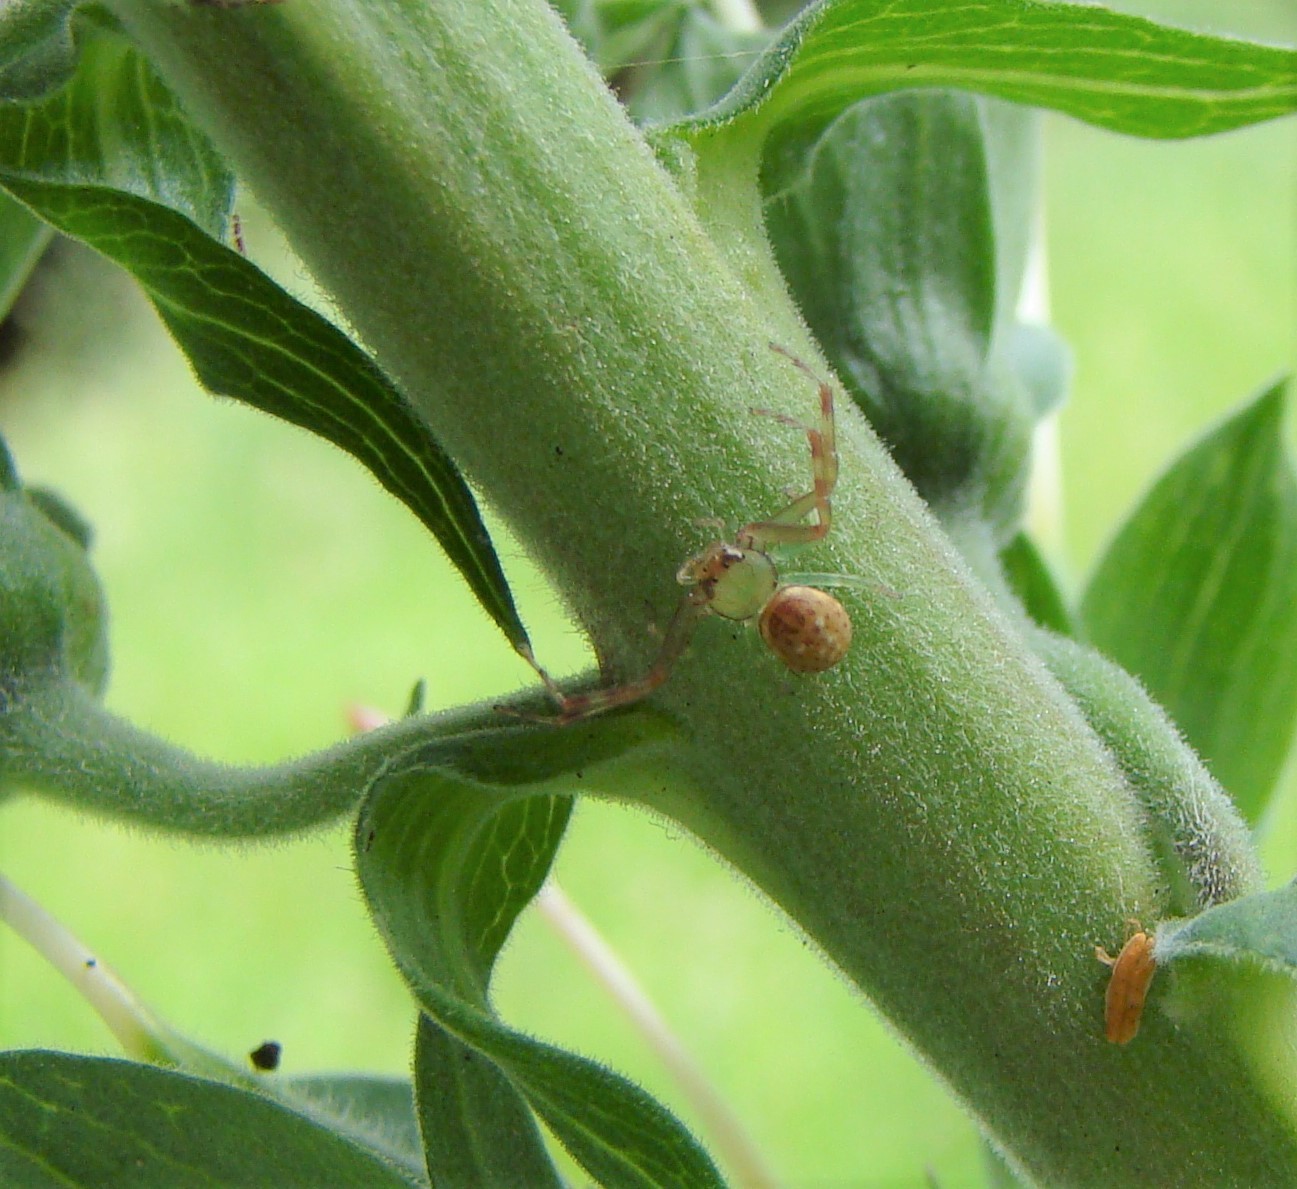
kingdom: Animalia
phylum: Arthropoda
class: Arachnida
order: Araneae
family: Thomisidae
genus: Diaea
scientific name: Diaea ambara
